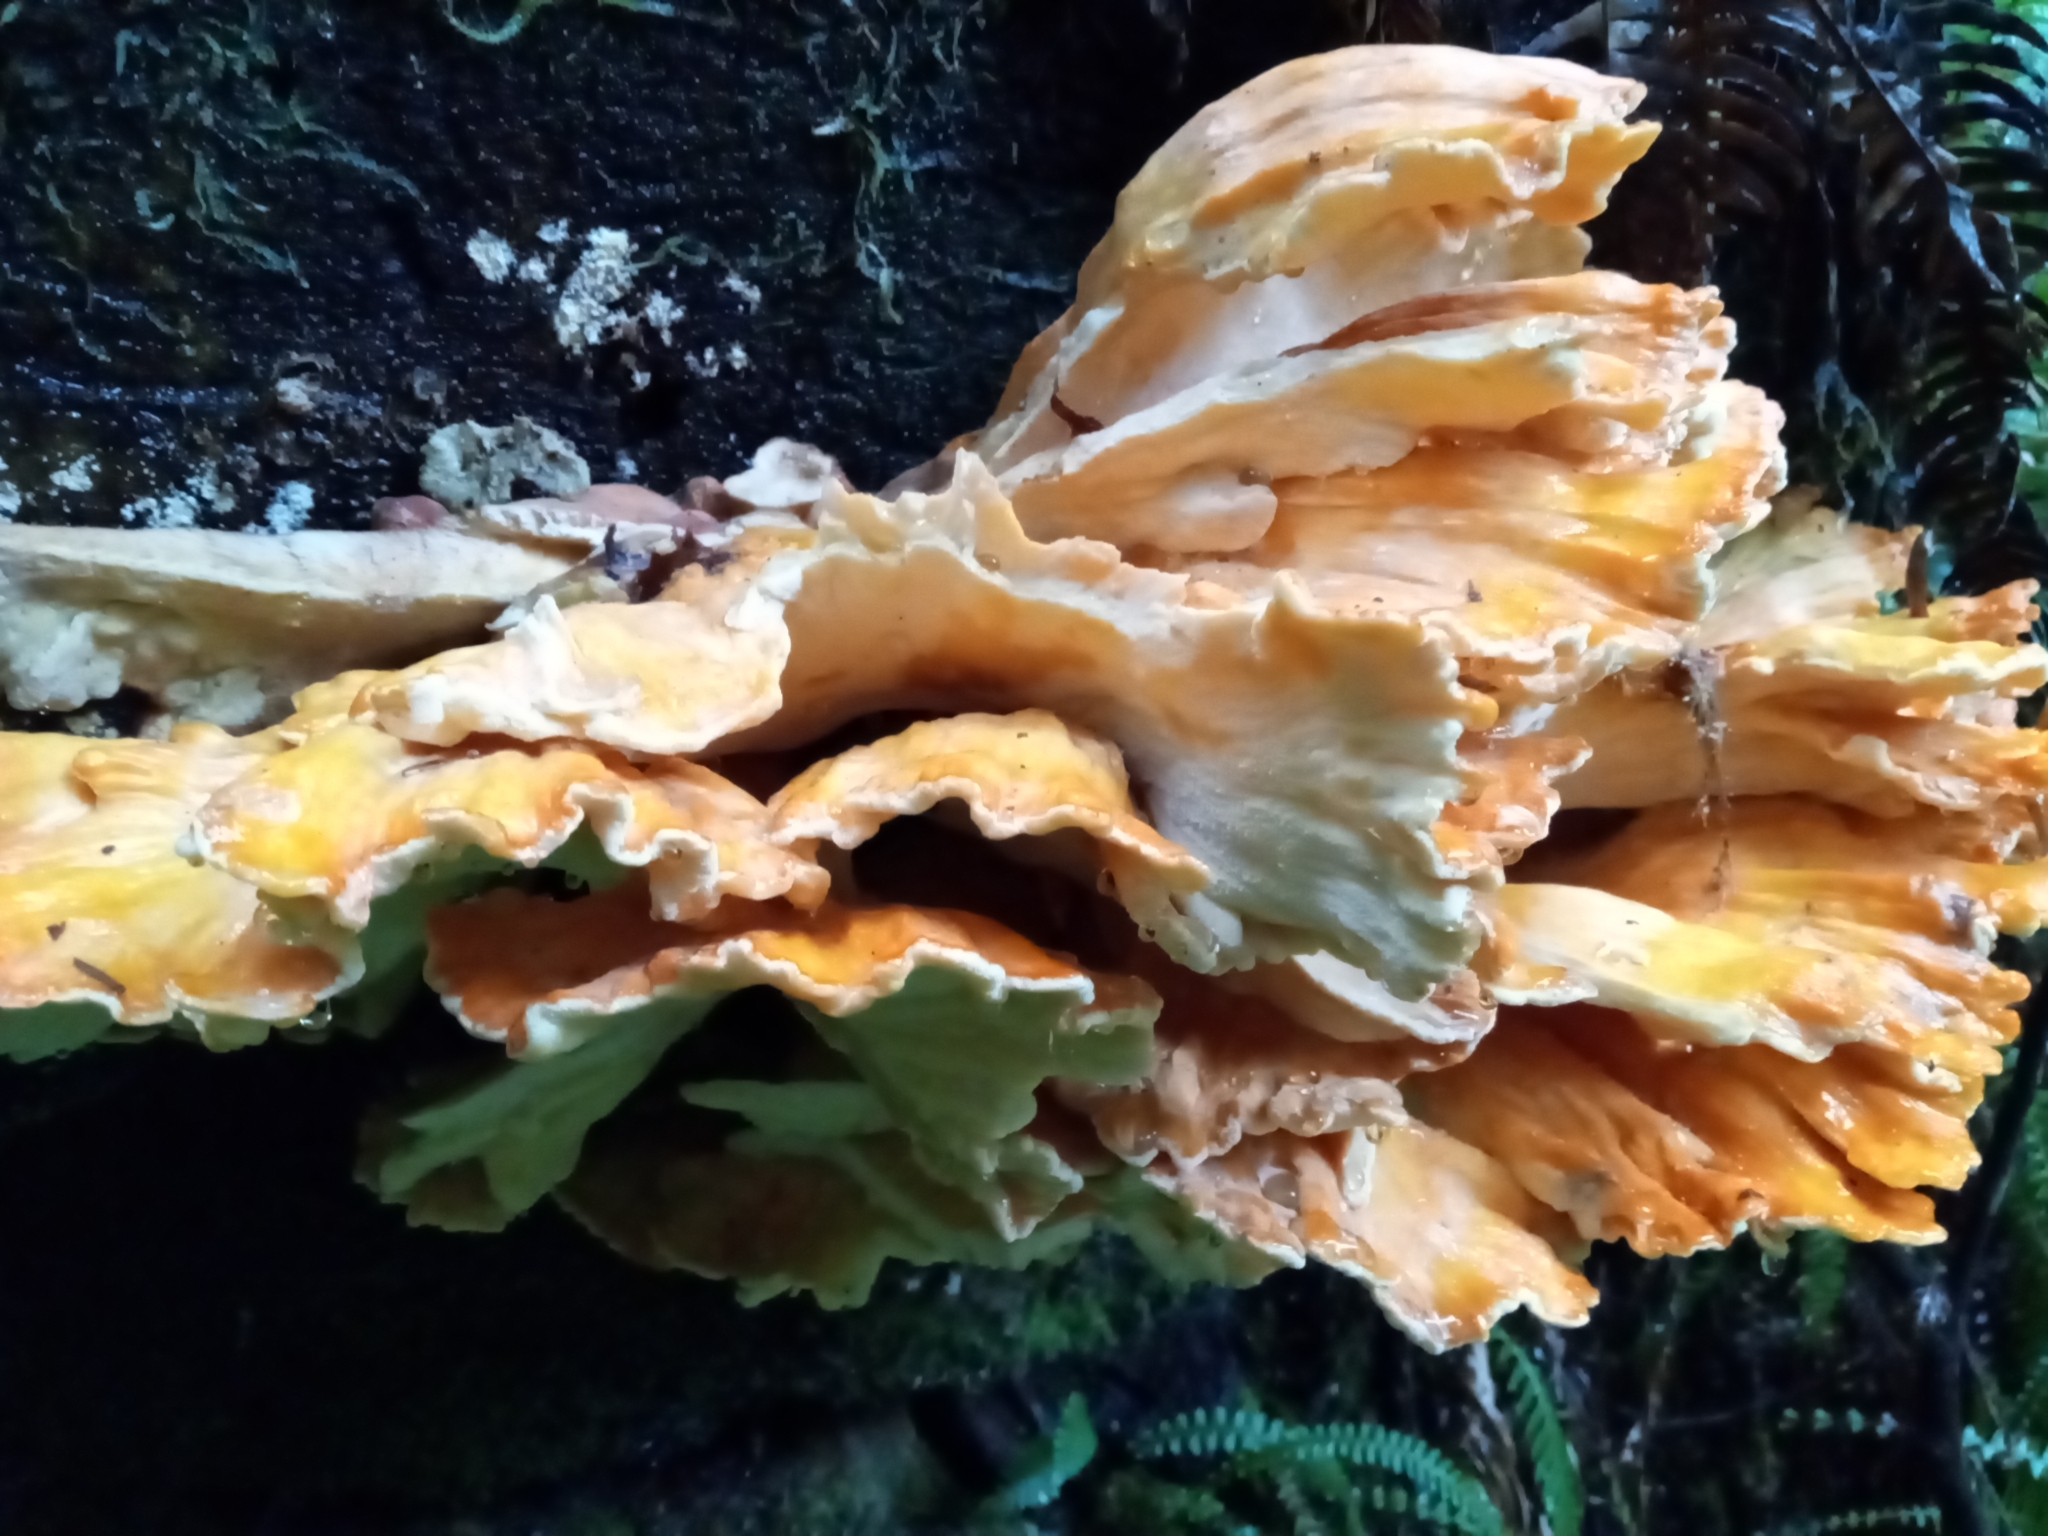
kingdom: Fungi
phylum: Basidiomycota
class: Agaricomycetes
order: Polyporales
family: Laetiporaceae
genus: Laetiporus
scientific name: Laetiporus conifericola
